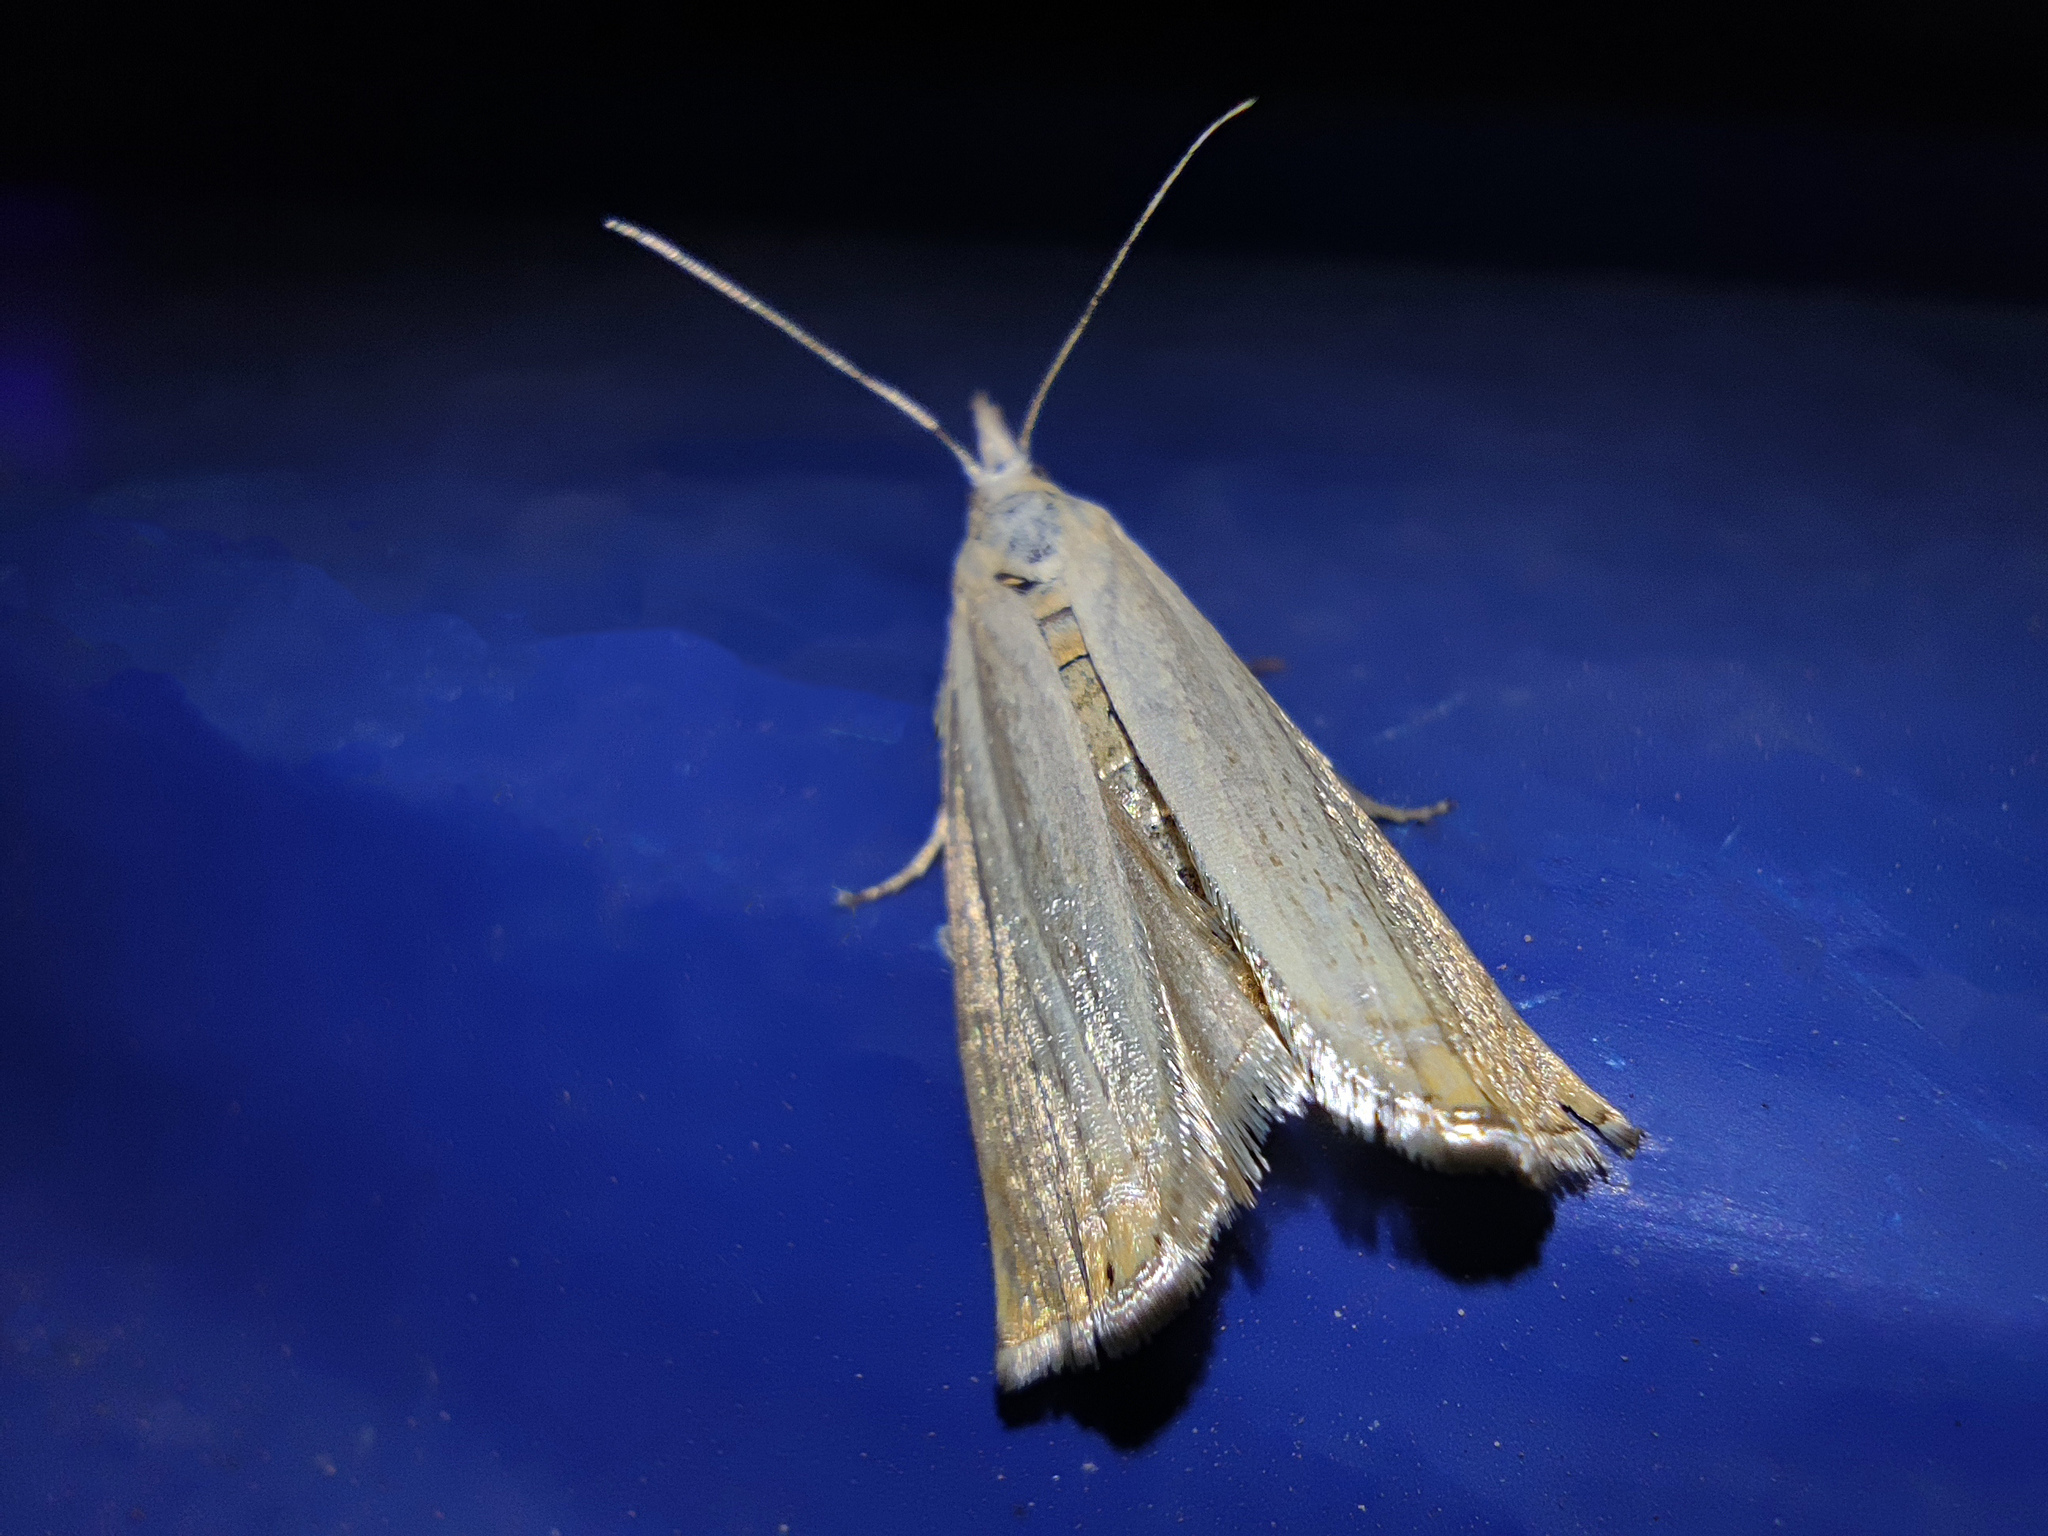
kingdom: Animalia
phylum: Arthropoda
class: Insecta
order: Lepidoptera
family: Crambidae
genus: Chrysoteuchia
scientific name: Chrysoteuchia culmella
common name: Garden grass-veneer
